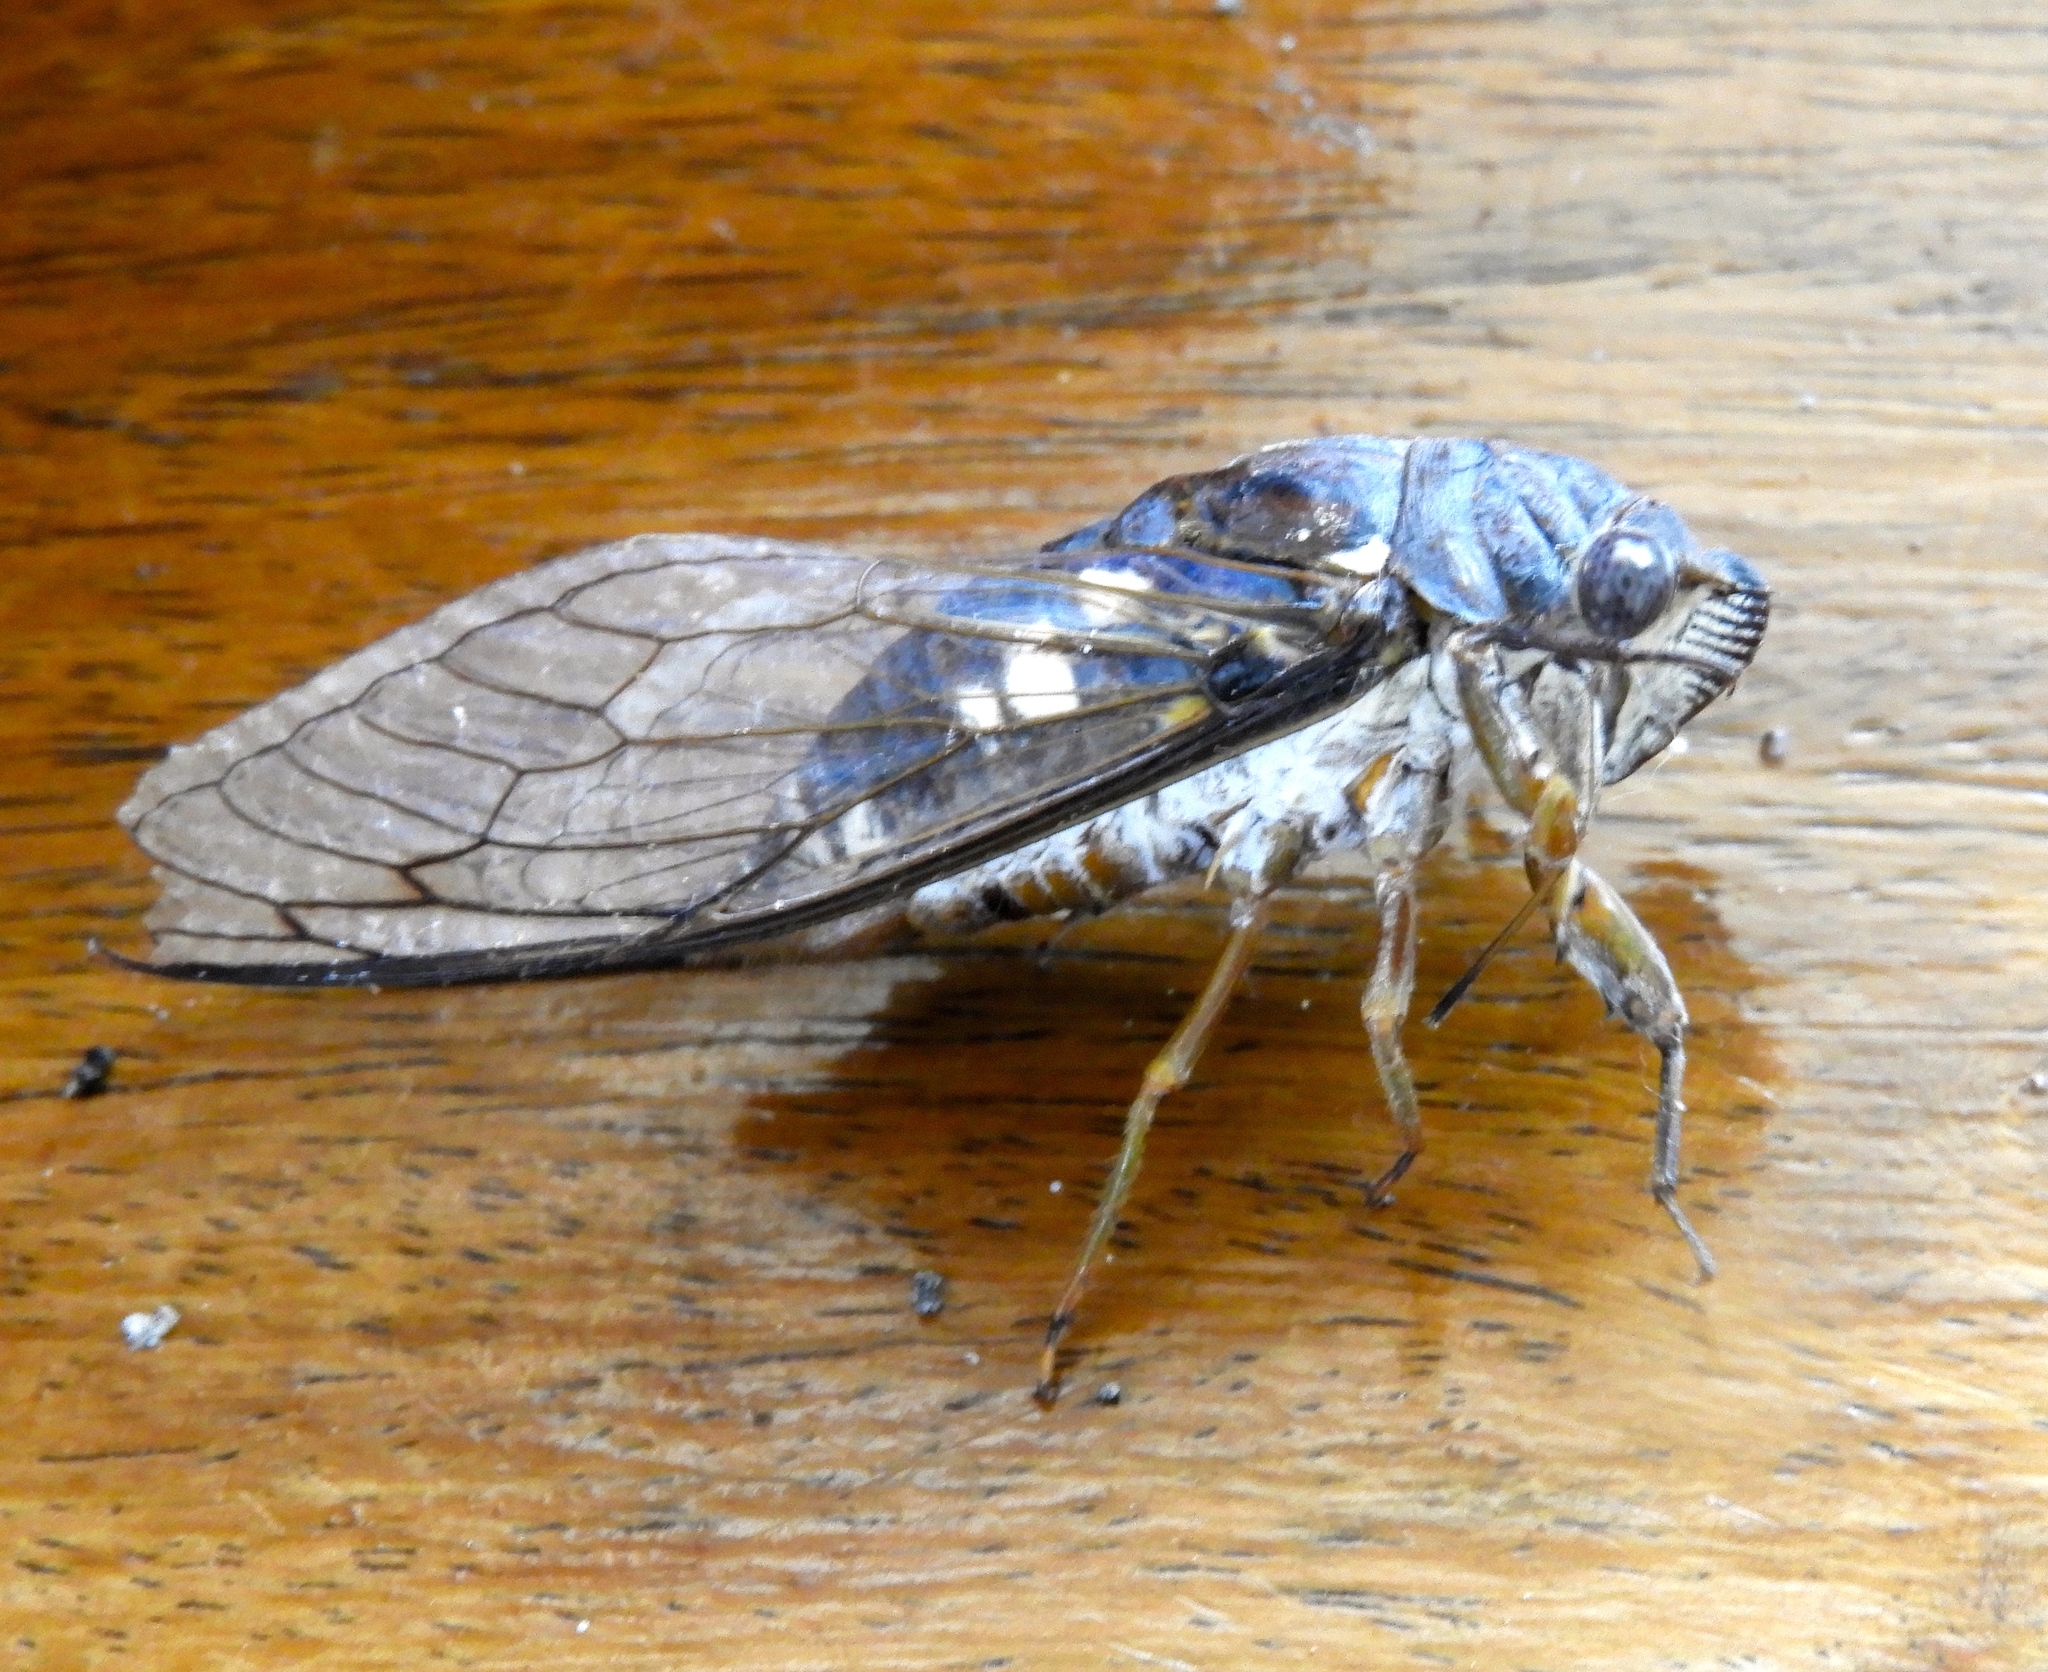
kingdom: Animalia
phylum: Arthropoda
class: Insecta
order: Hemiptera
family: Cicadidae
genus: Cornuplura
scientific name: Cornuplura curvispinosa
